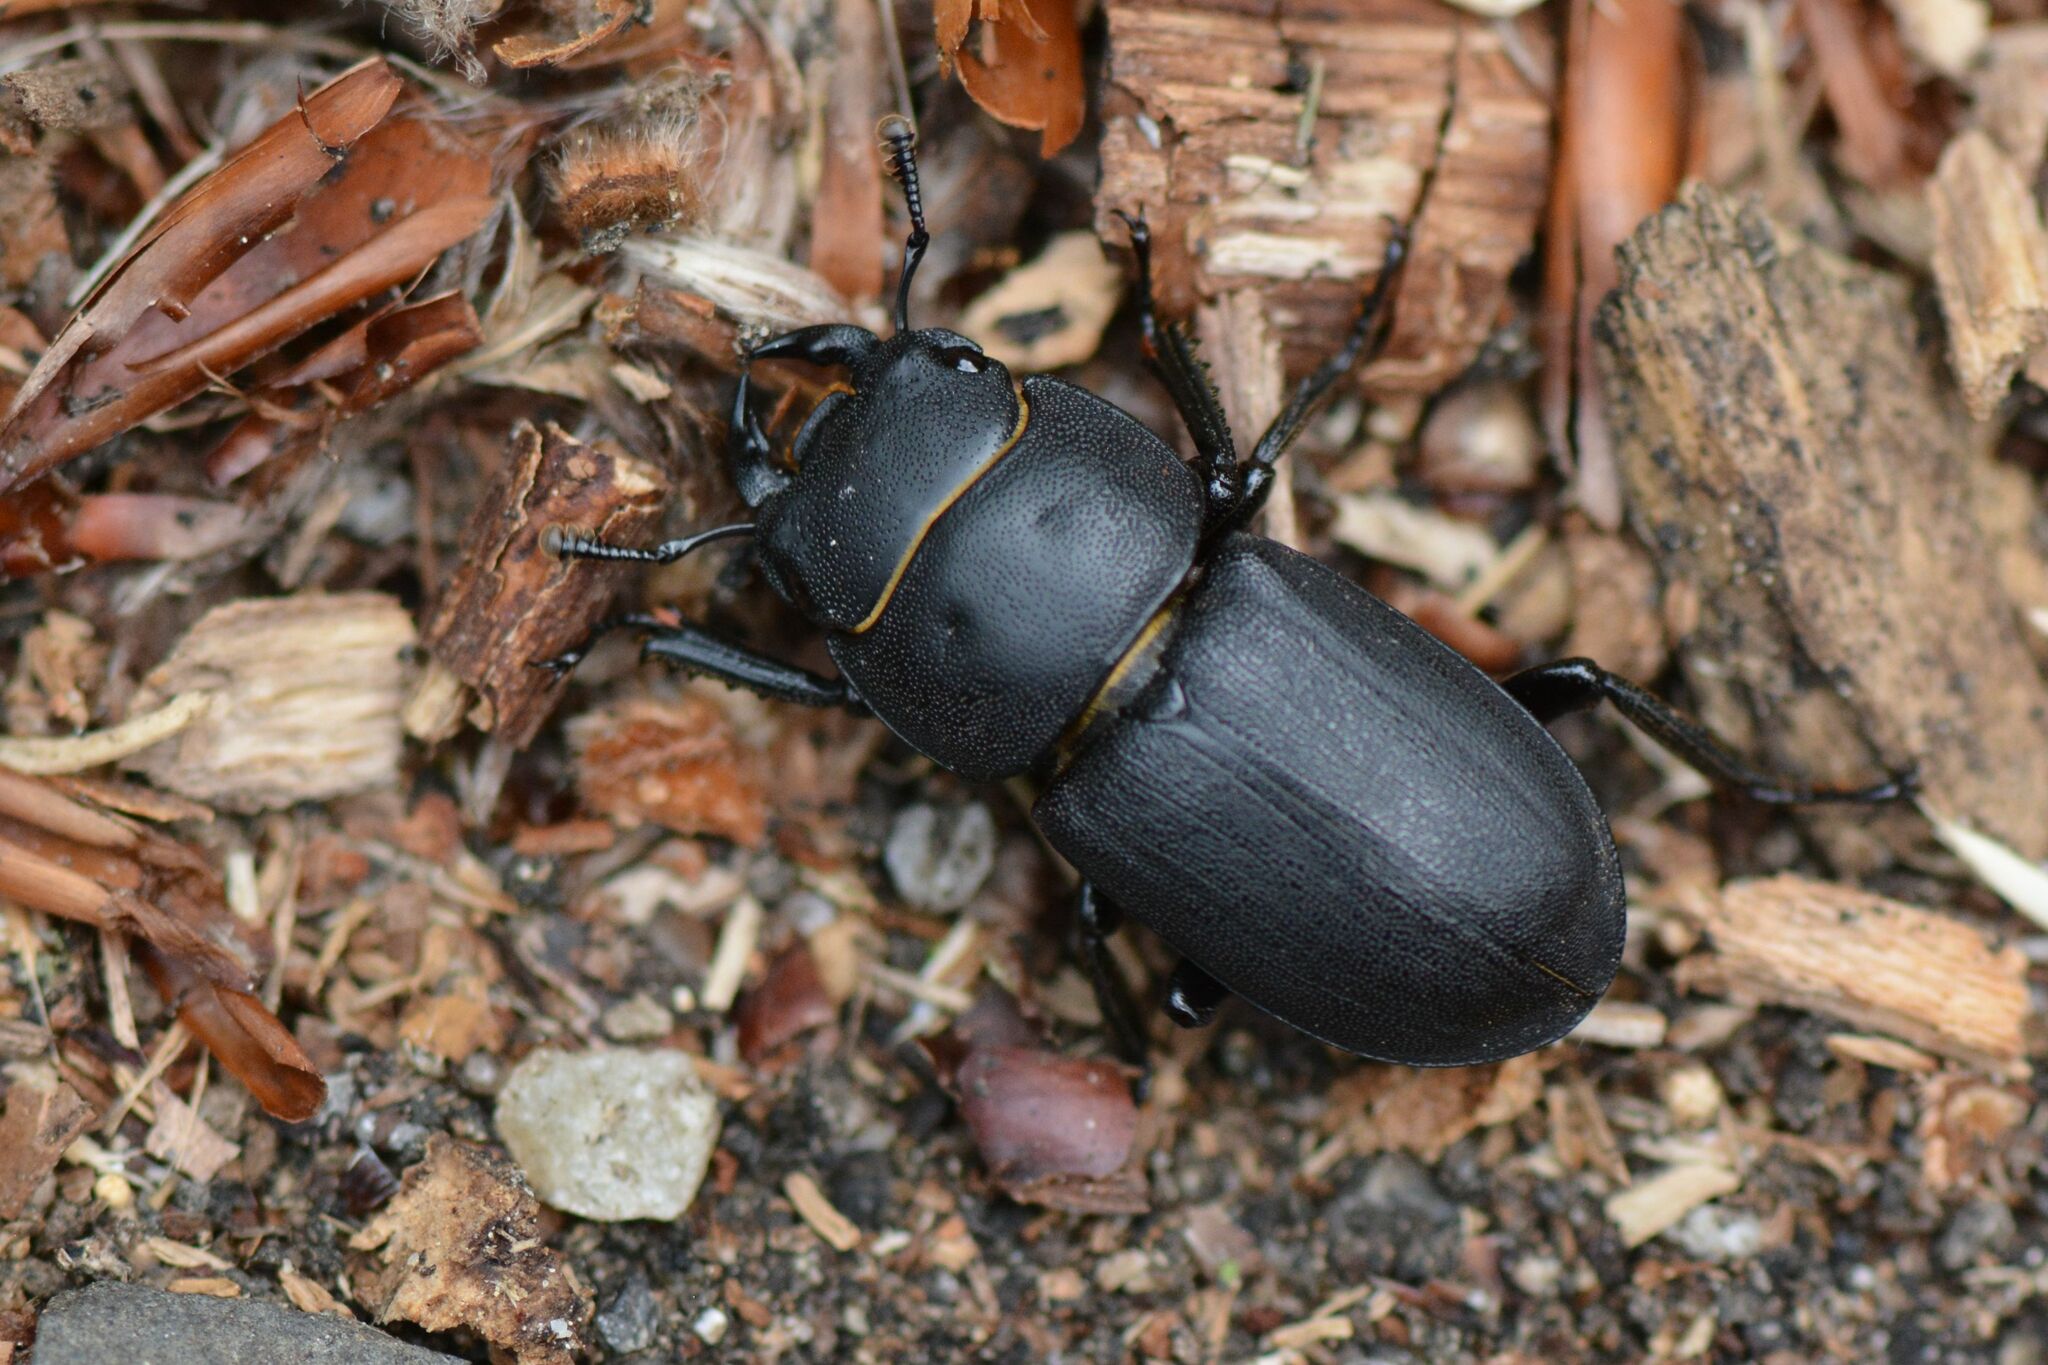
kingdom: Animalia
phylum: Arthropoda
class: Insecta
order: Coleoptera
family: Lucanidae
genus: Dorcus
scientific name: Dorcus parallelipipedus
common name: Lesser stag beetle
